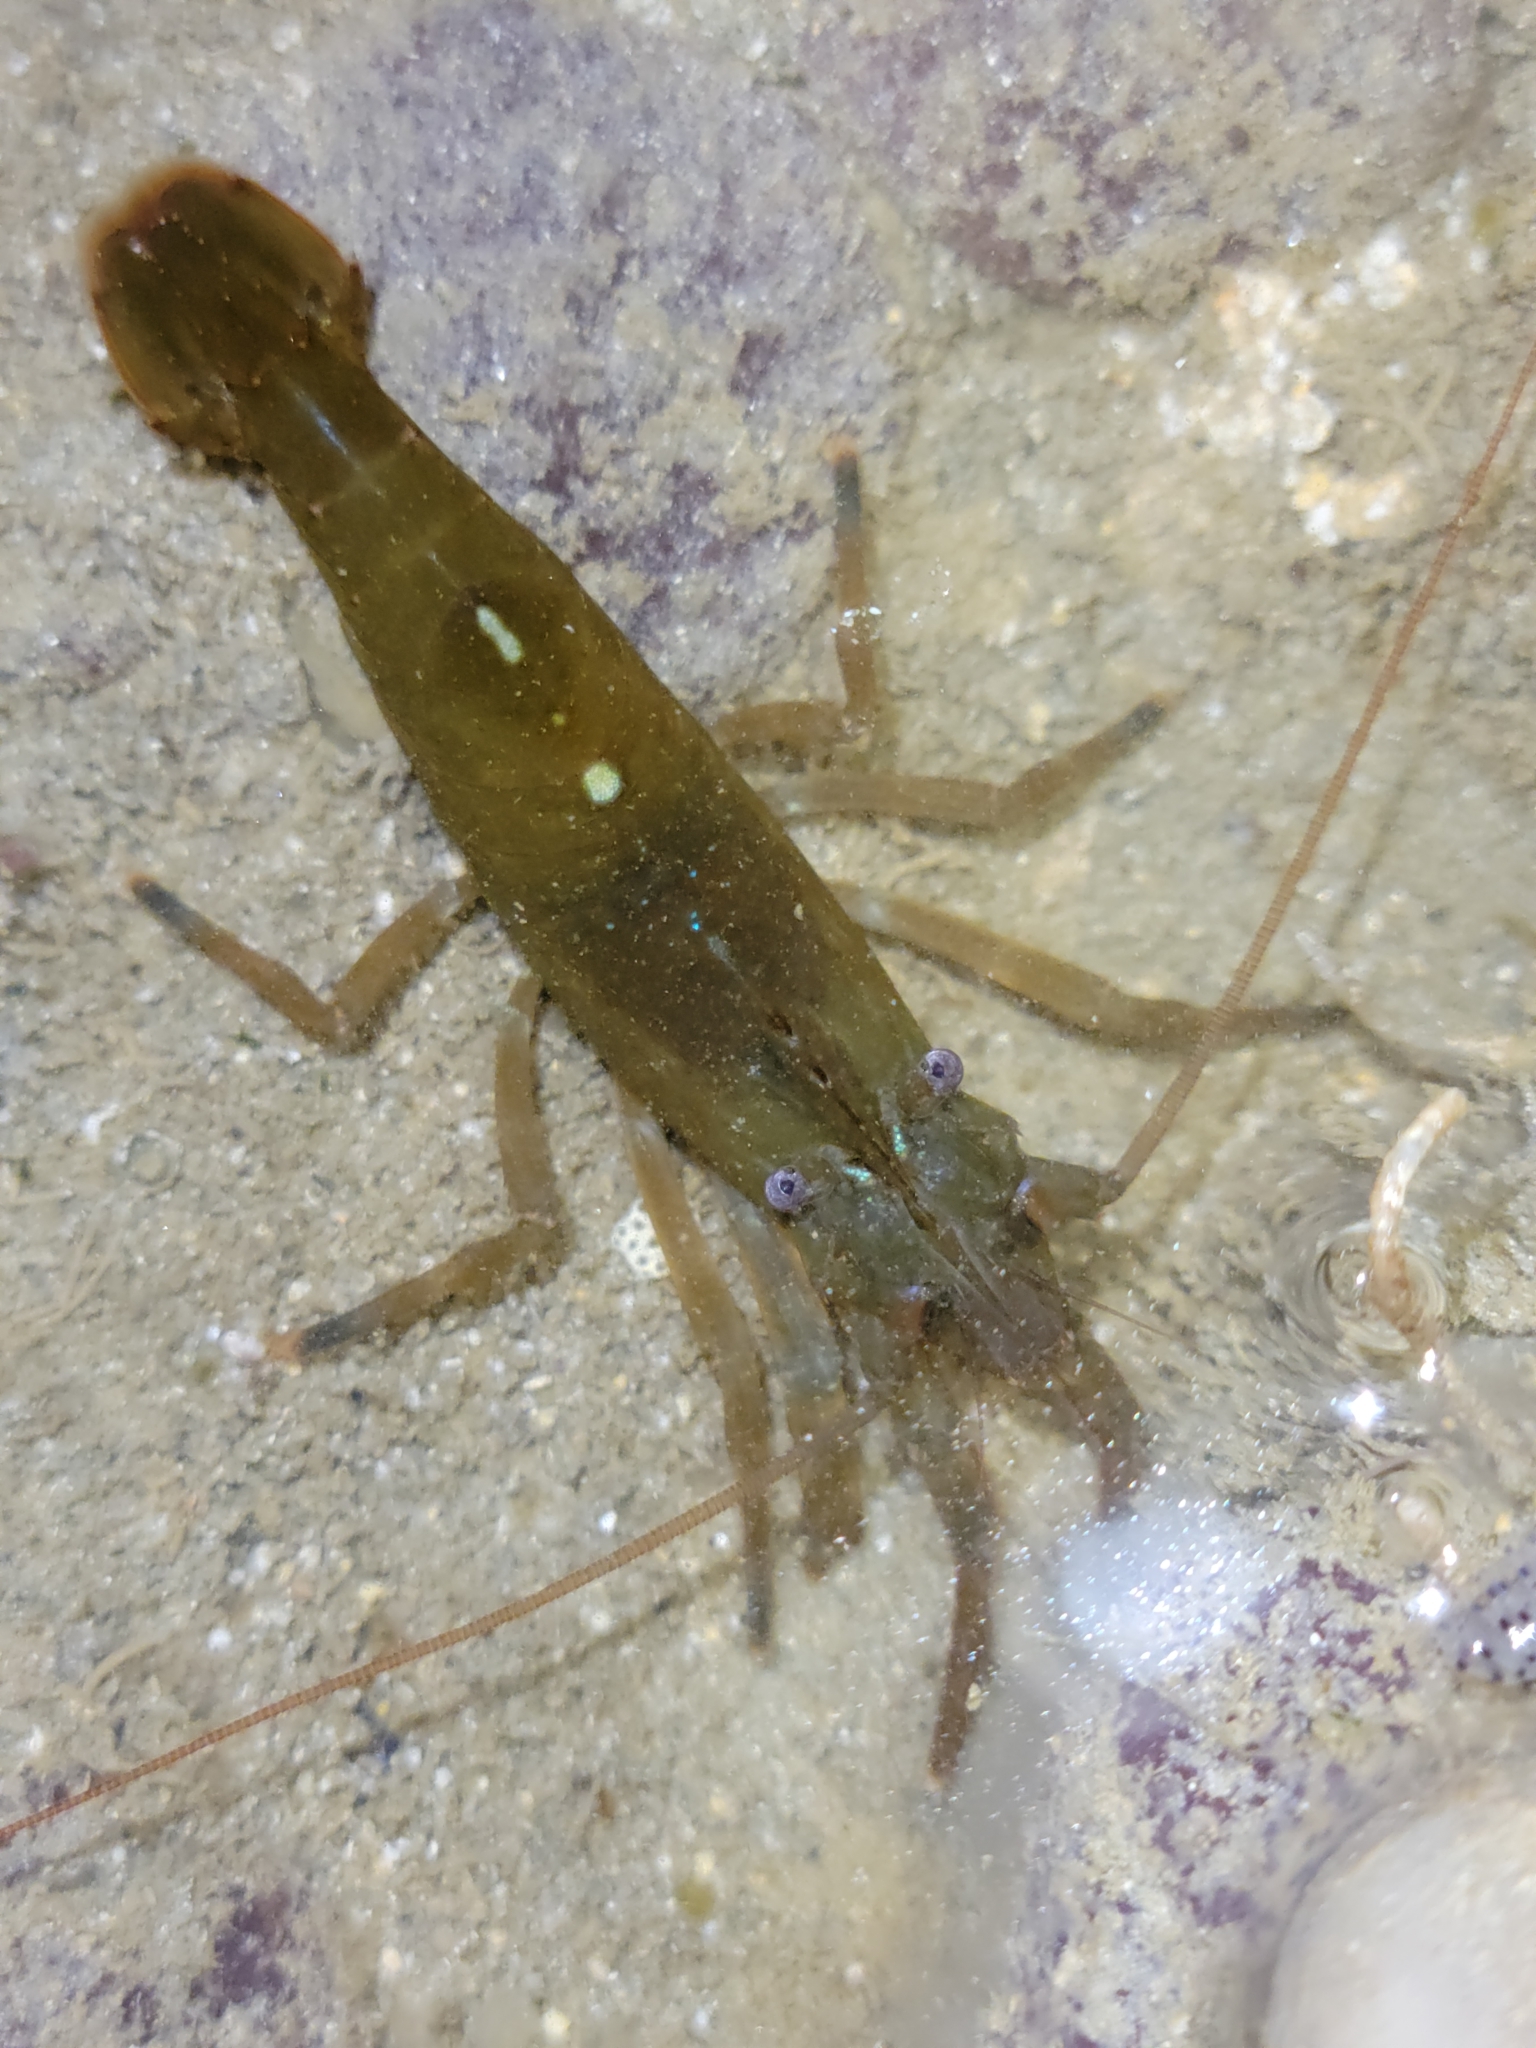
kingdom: Animalia
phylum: Arthropoda
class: Malacostraca
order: Decapoda
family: Thoridae
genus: Heptacarpus
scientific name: Heptacarpus palpator
